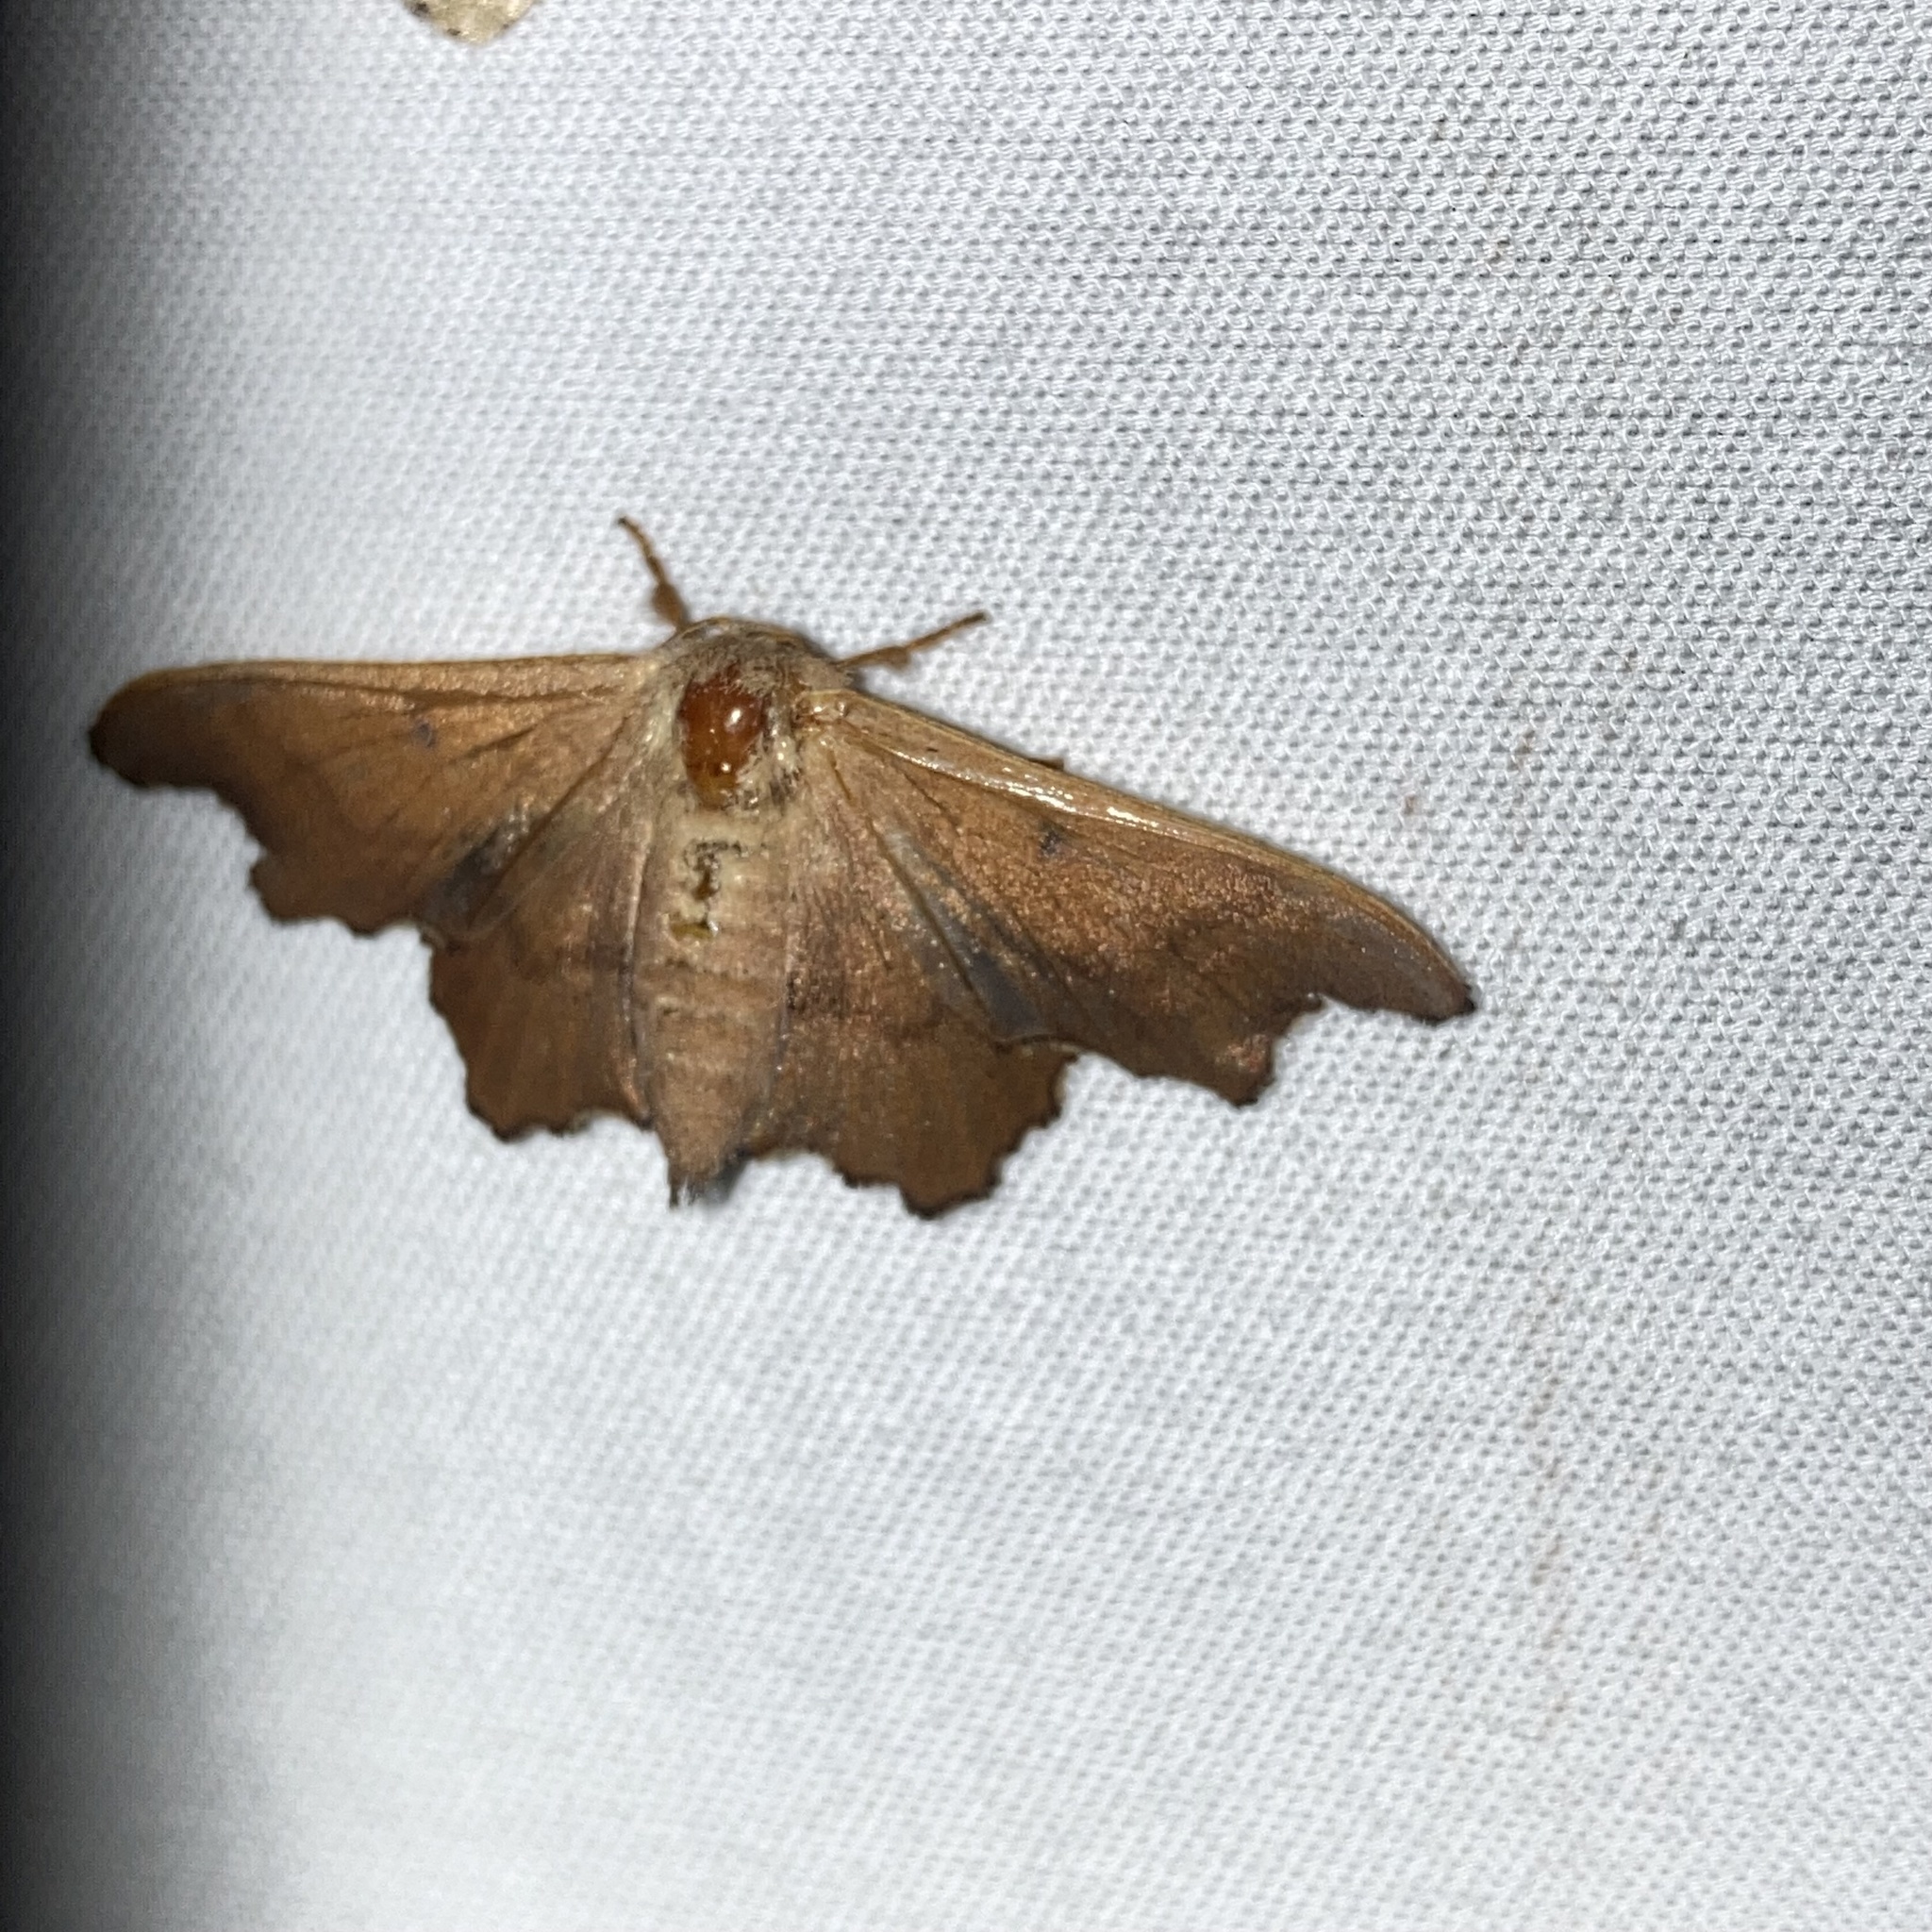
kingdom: Animalia
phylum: Arthropoda
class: Insecta
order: Lepidoptera
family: Mimallonidae
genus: Lacosoma
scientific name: Lacosoma chiridota
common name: Scalloped sack-bearer moth
